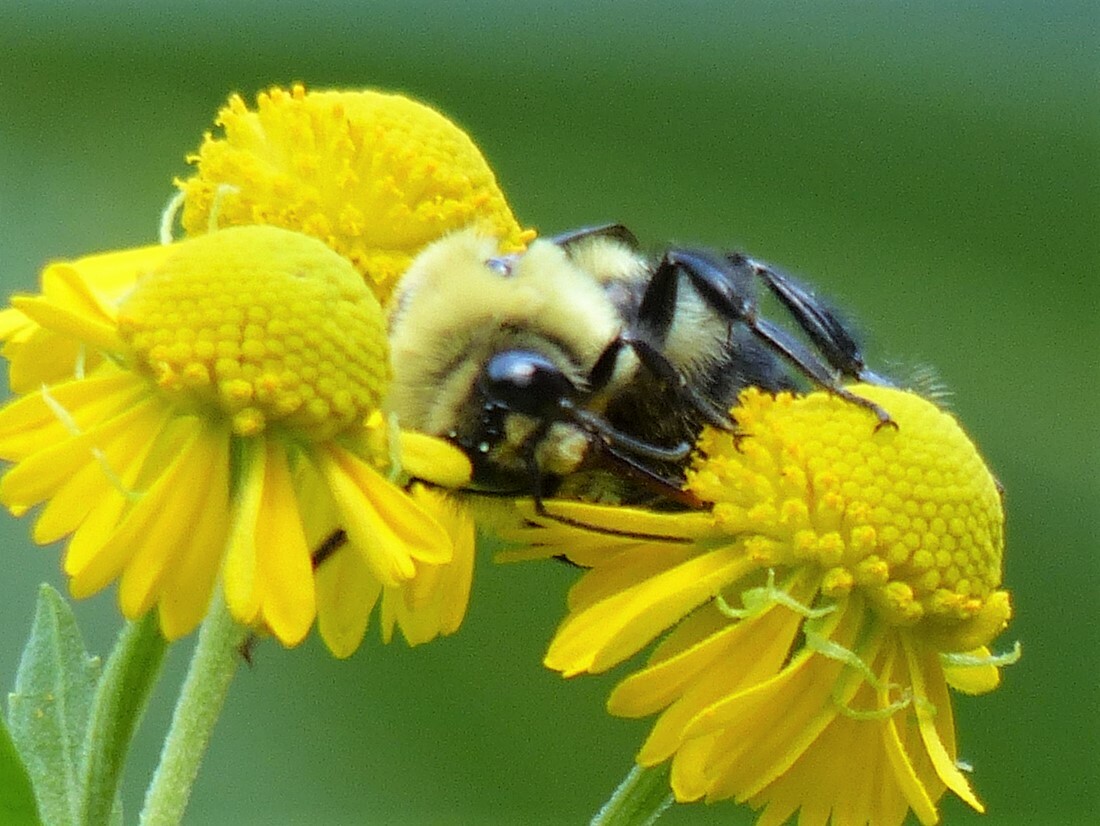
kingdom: Animalia
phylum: Arthropoda
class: Insecta
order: Hymenoptera
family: Apidae
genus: Bombus
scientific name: Bombus griseocollis
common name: Brown-belted bumble bee
